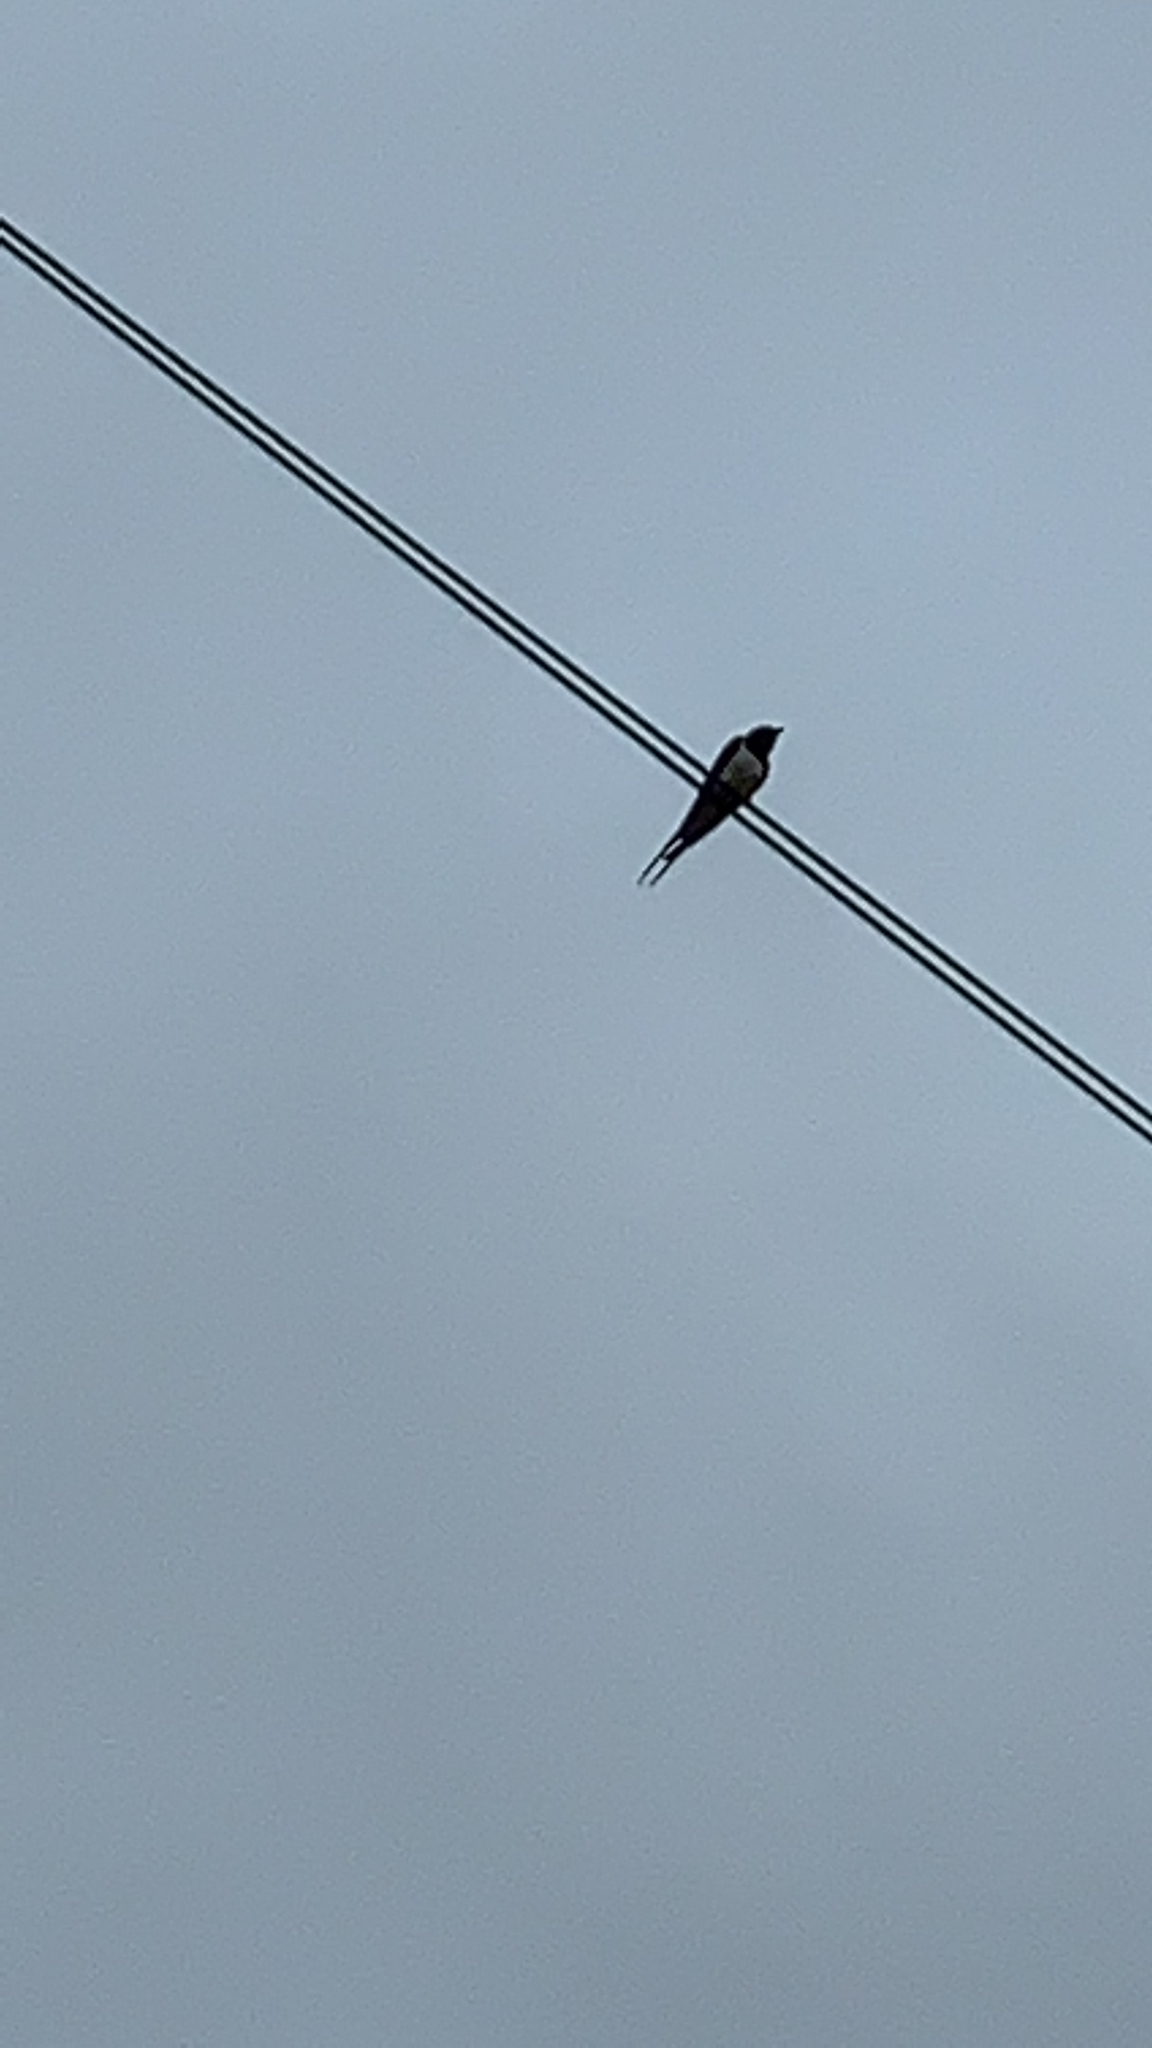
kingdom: Animalia
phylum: Chordata
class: Aves
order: Passeriformes
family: Hirundinidae
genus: Hirundo
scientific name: Hirundo rustica
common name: Barn swallow
